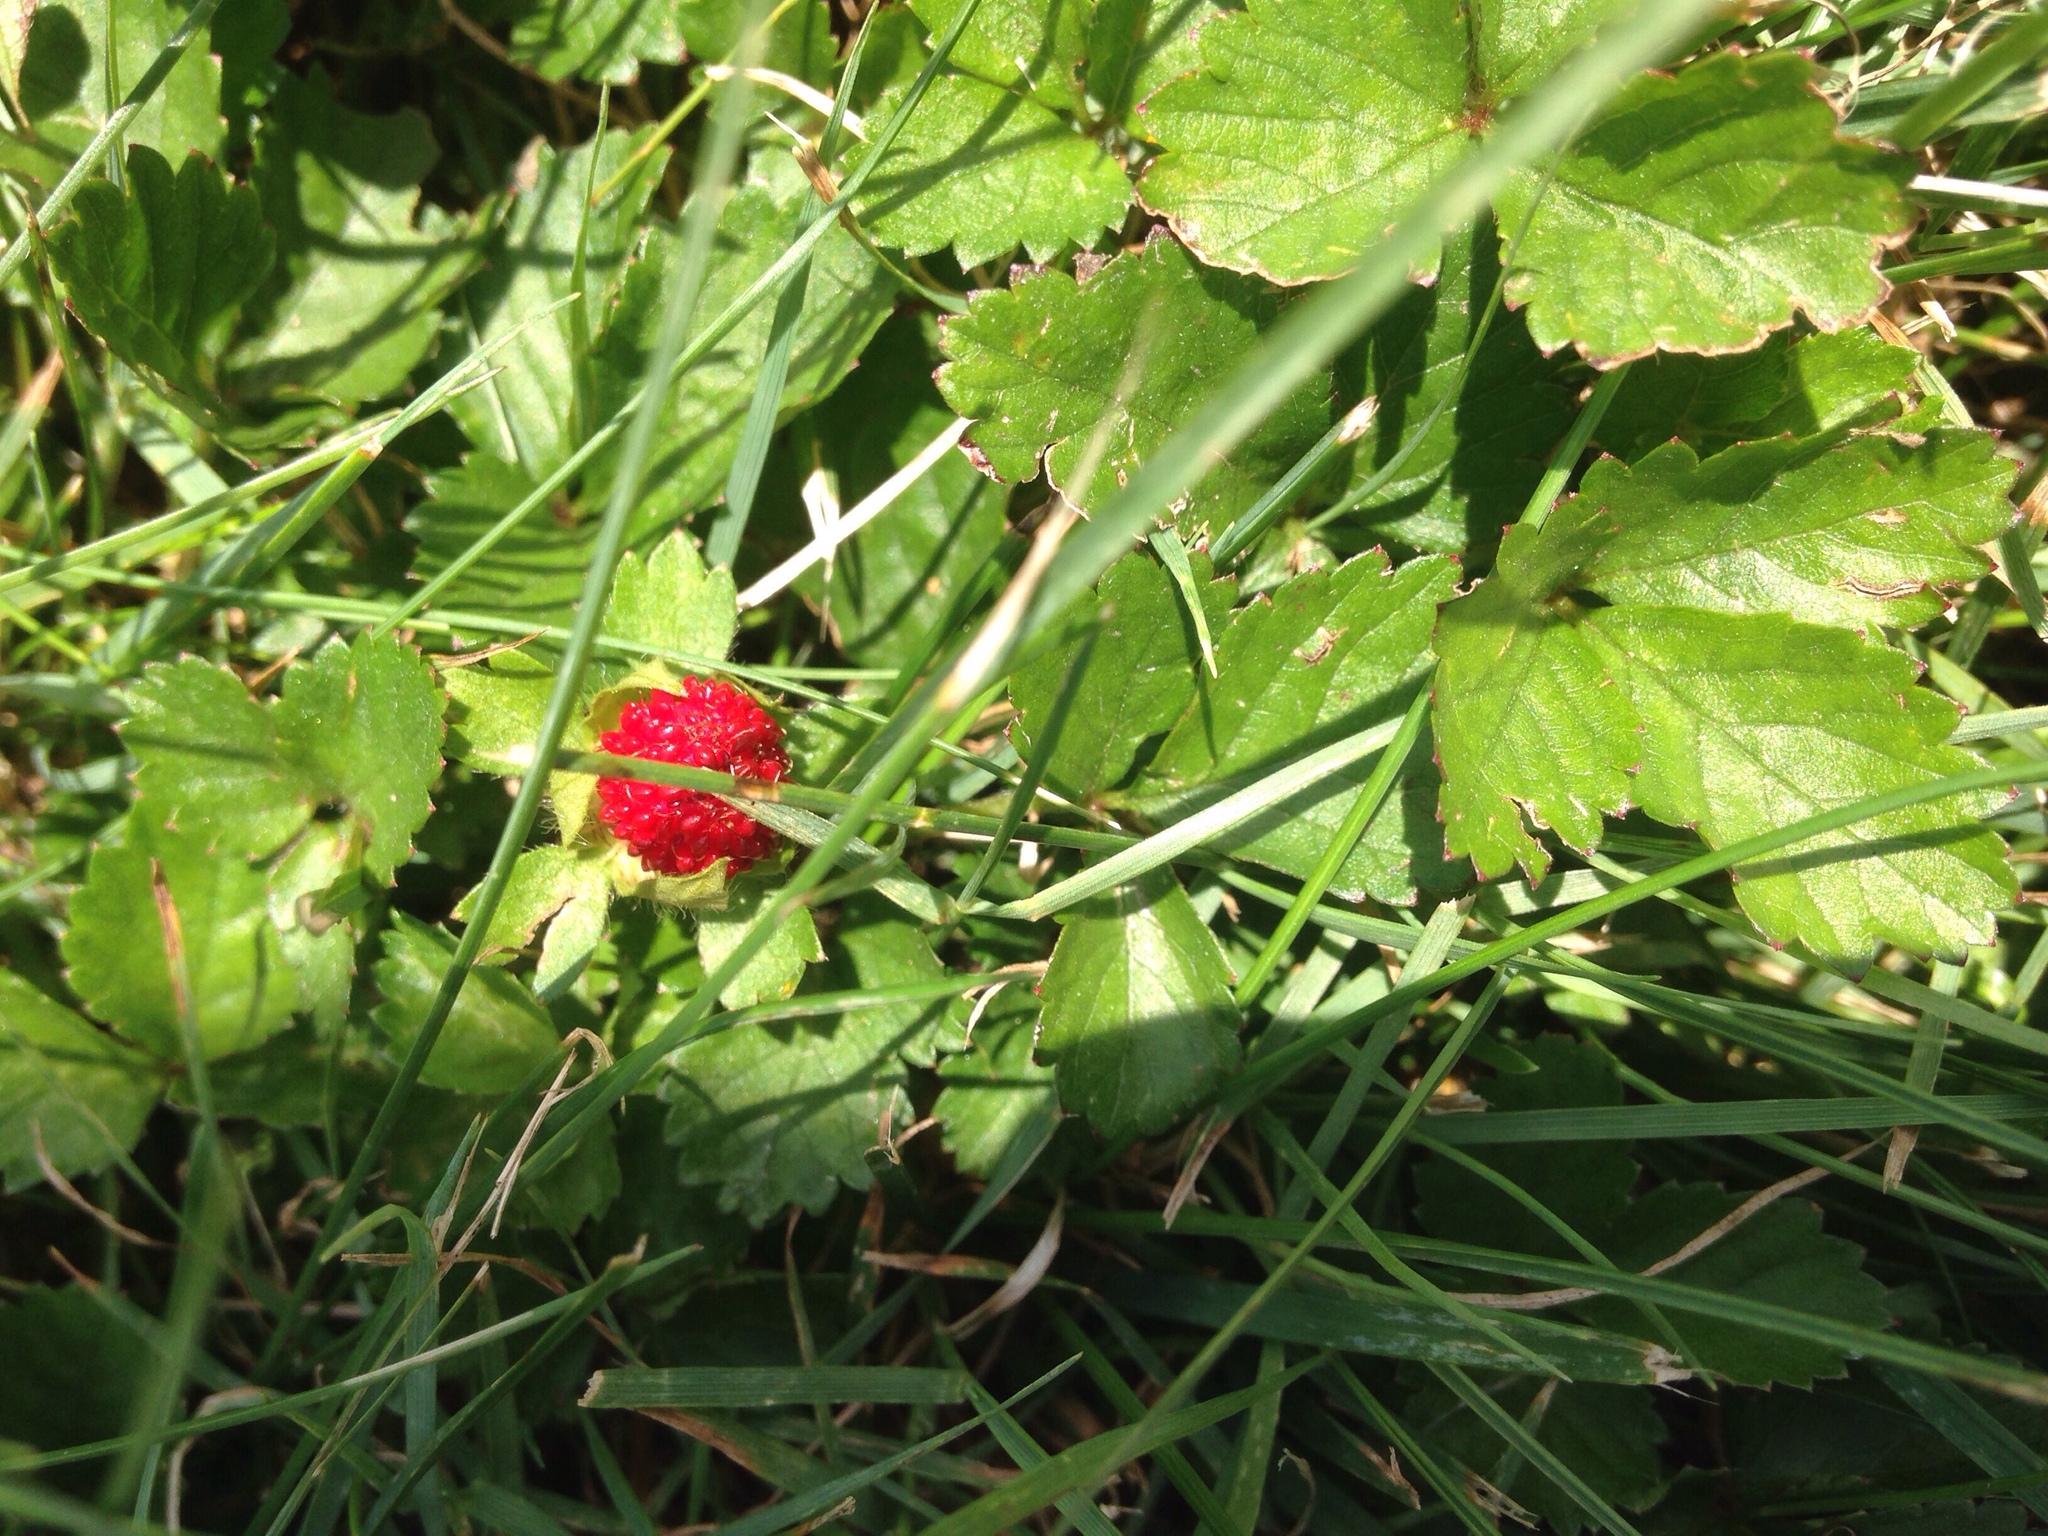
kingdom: Plantae
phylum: Tracheophyta
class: Magnoliopsida
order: Rosales
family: Rosaceae
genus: Potentilla
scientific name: Potentilla indica
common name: Yellow-flowered strawberry
